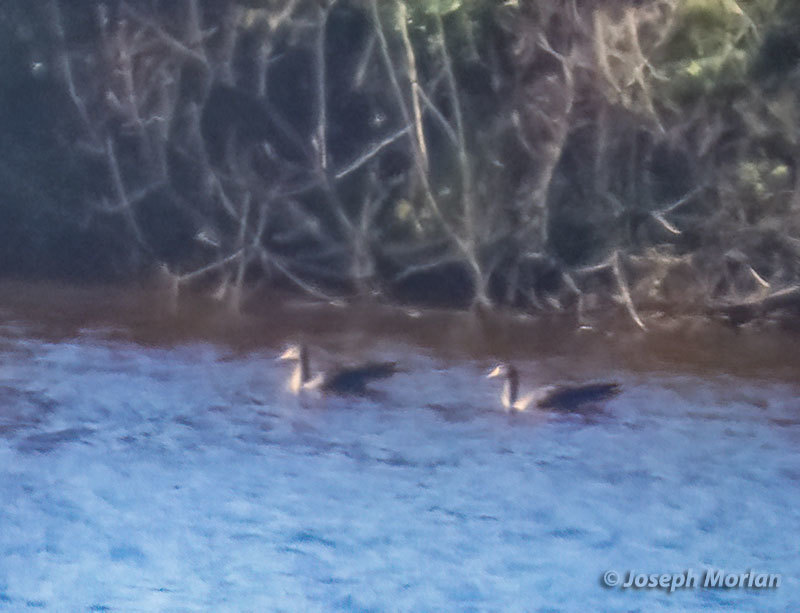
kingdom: Animalia
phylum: Chordata
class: Aves
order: Anseriformes
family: Anatidae
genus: Anser
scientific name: Anser albifrons
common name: Greater white-fronted goose
